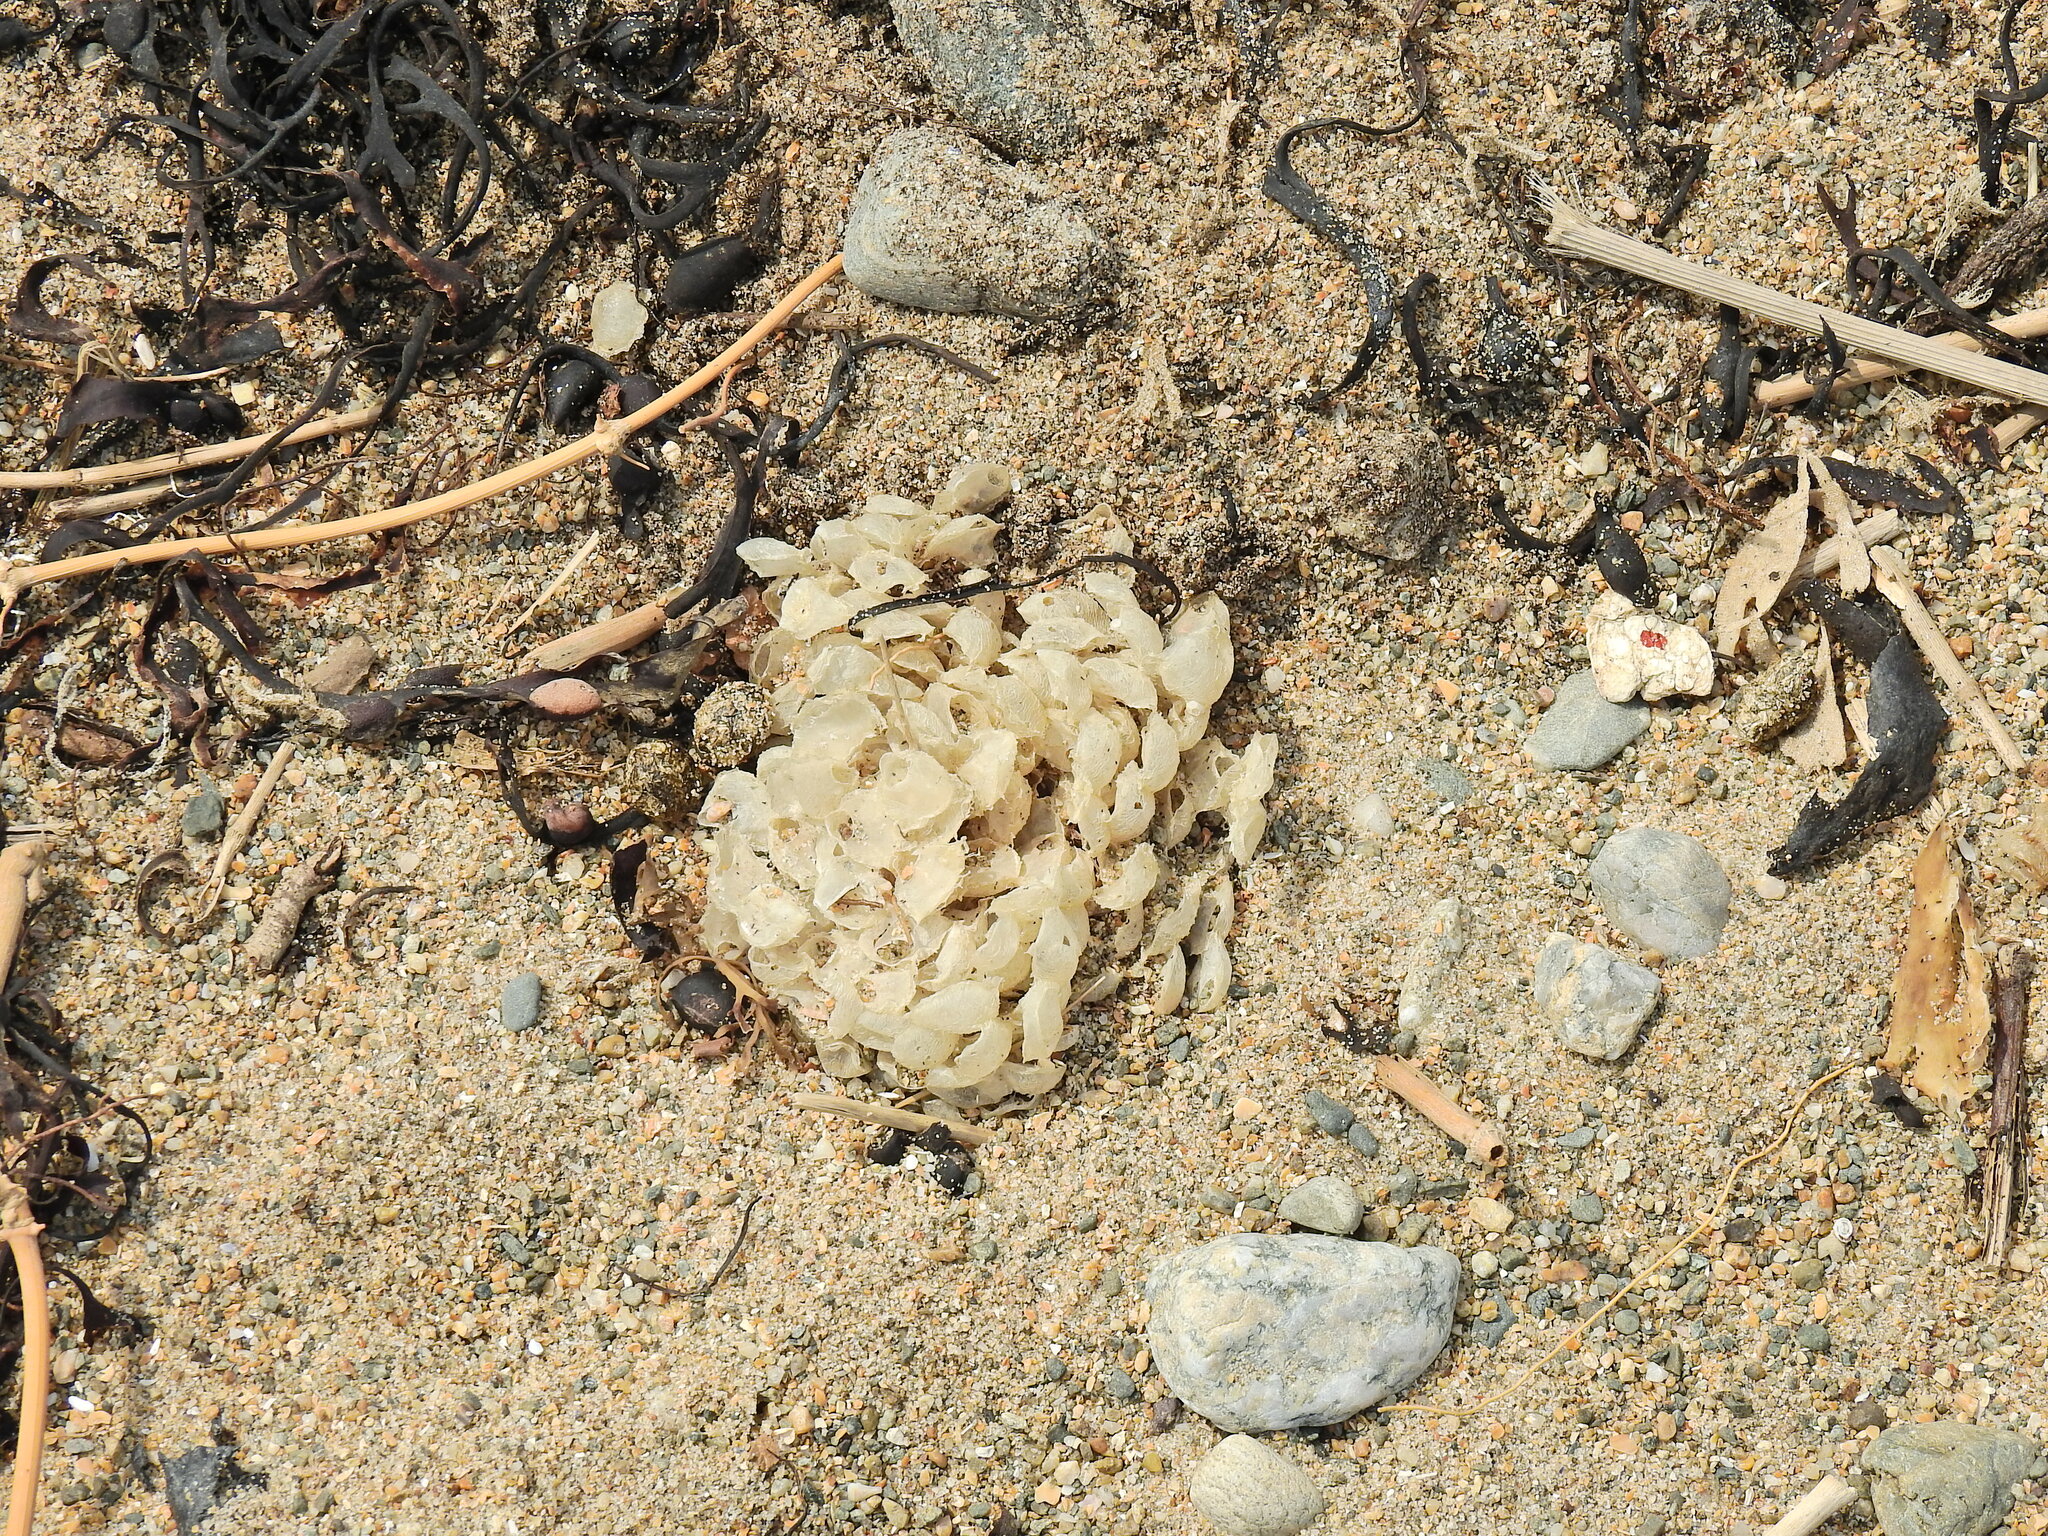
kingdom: Animalia
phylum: Mollusca
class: Gastropoda
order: Neogastropoda
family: Buccinidae
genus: Buccinum
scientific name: Buccinum undatum
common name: Common whelk
